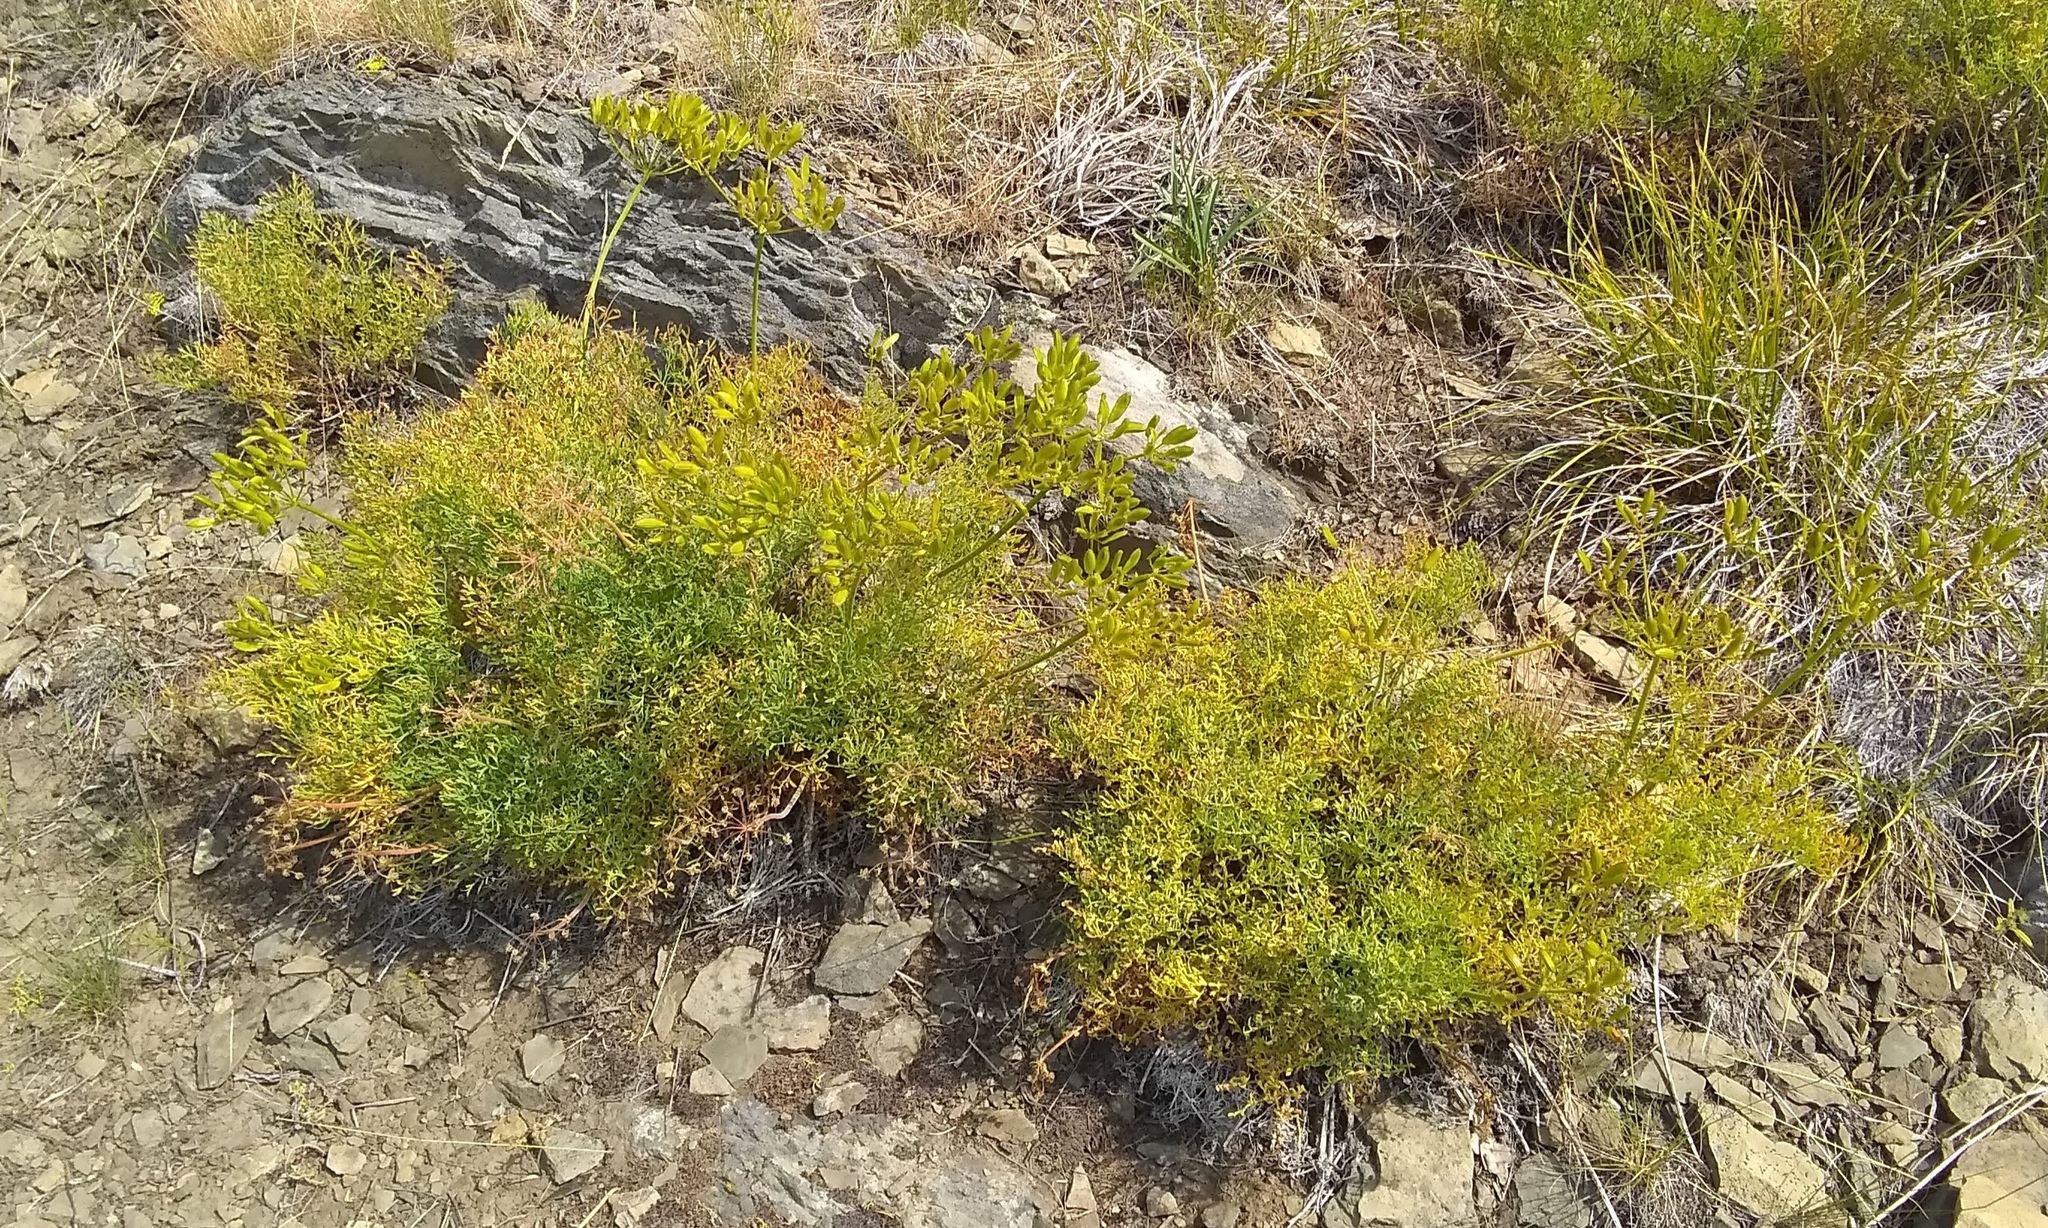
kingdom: Plantae
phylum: Tracheophyta
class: Magnoliopsida
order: Apiales
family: Apiaceae
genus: Lomatium
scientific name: Lomatium thompsonii
